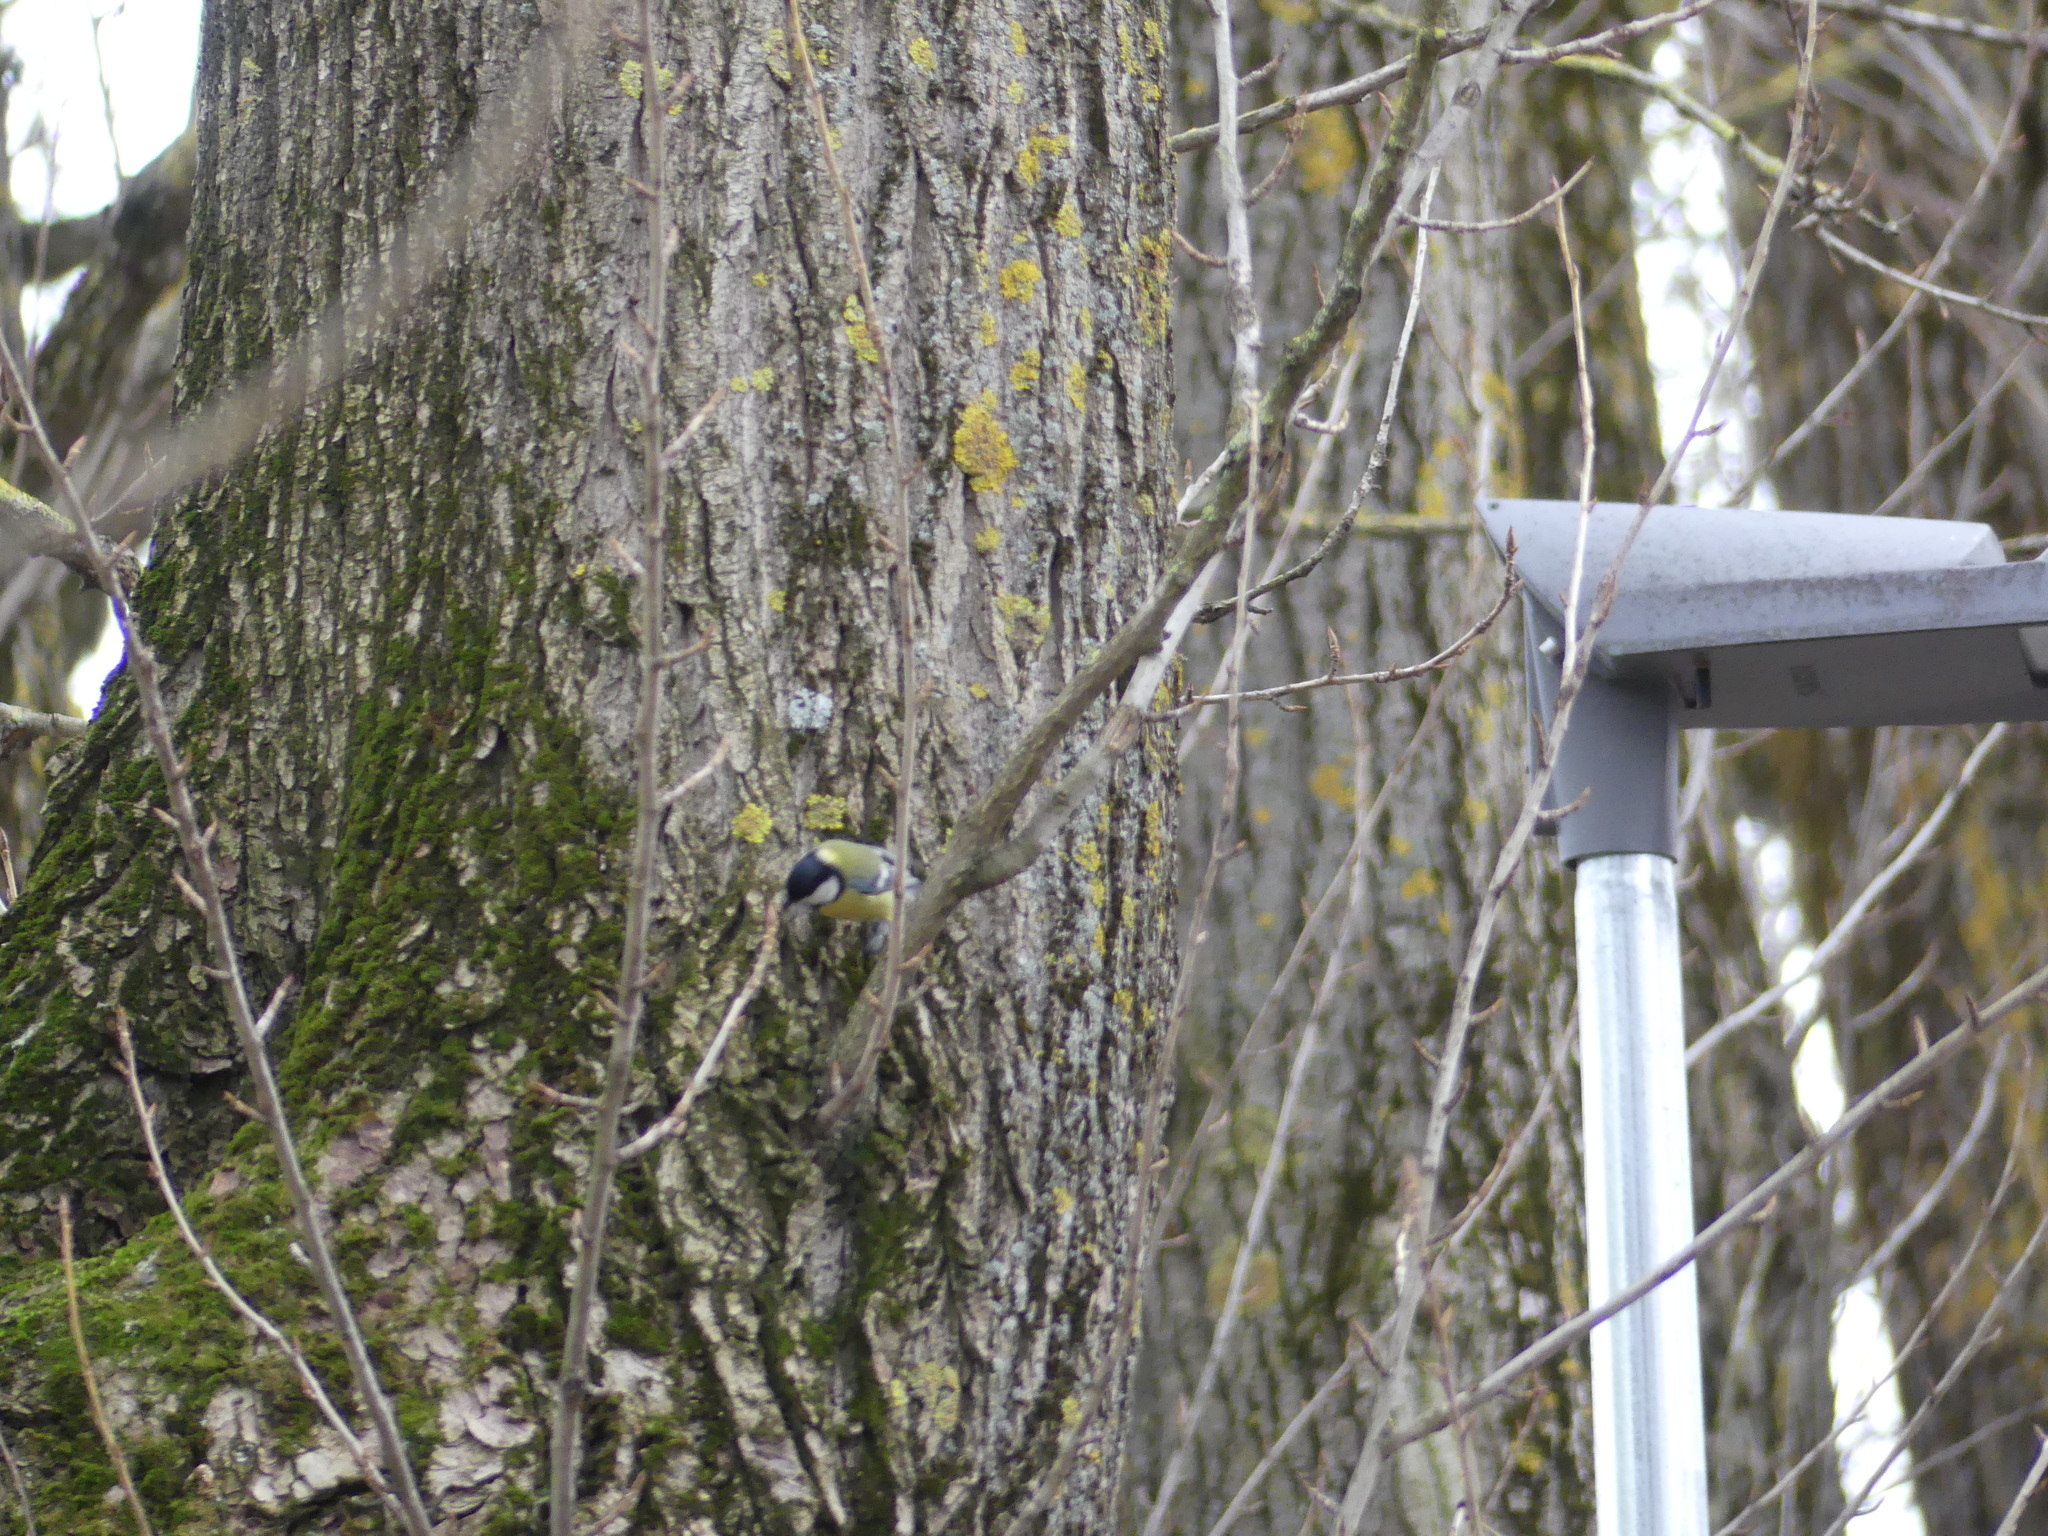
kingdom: Animalia
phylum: Chordata
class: Aves
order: Passeriformes
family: Paridae
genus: Parus
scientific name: Parus major
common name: Great tit
